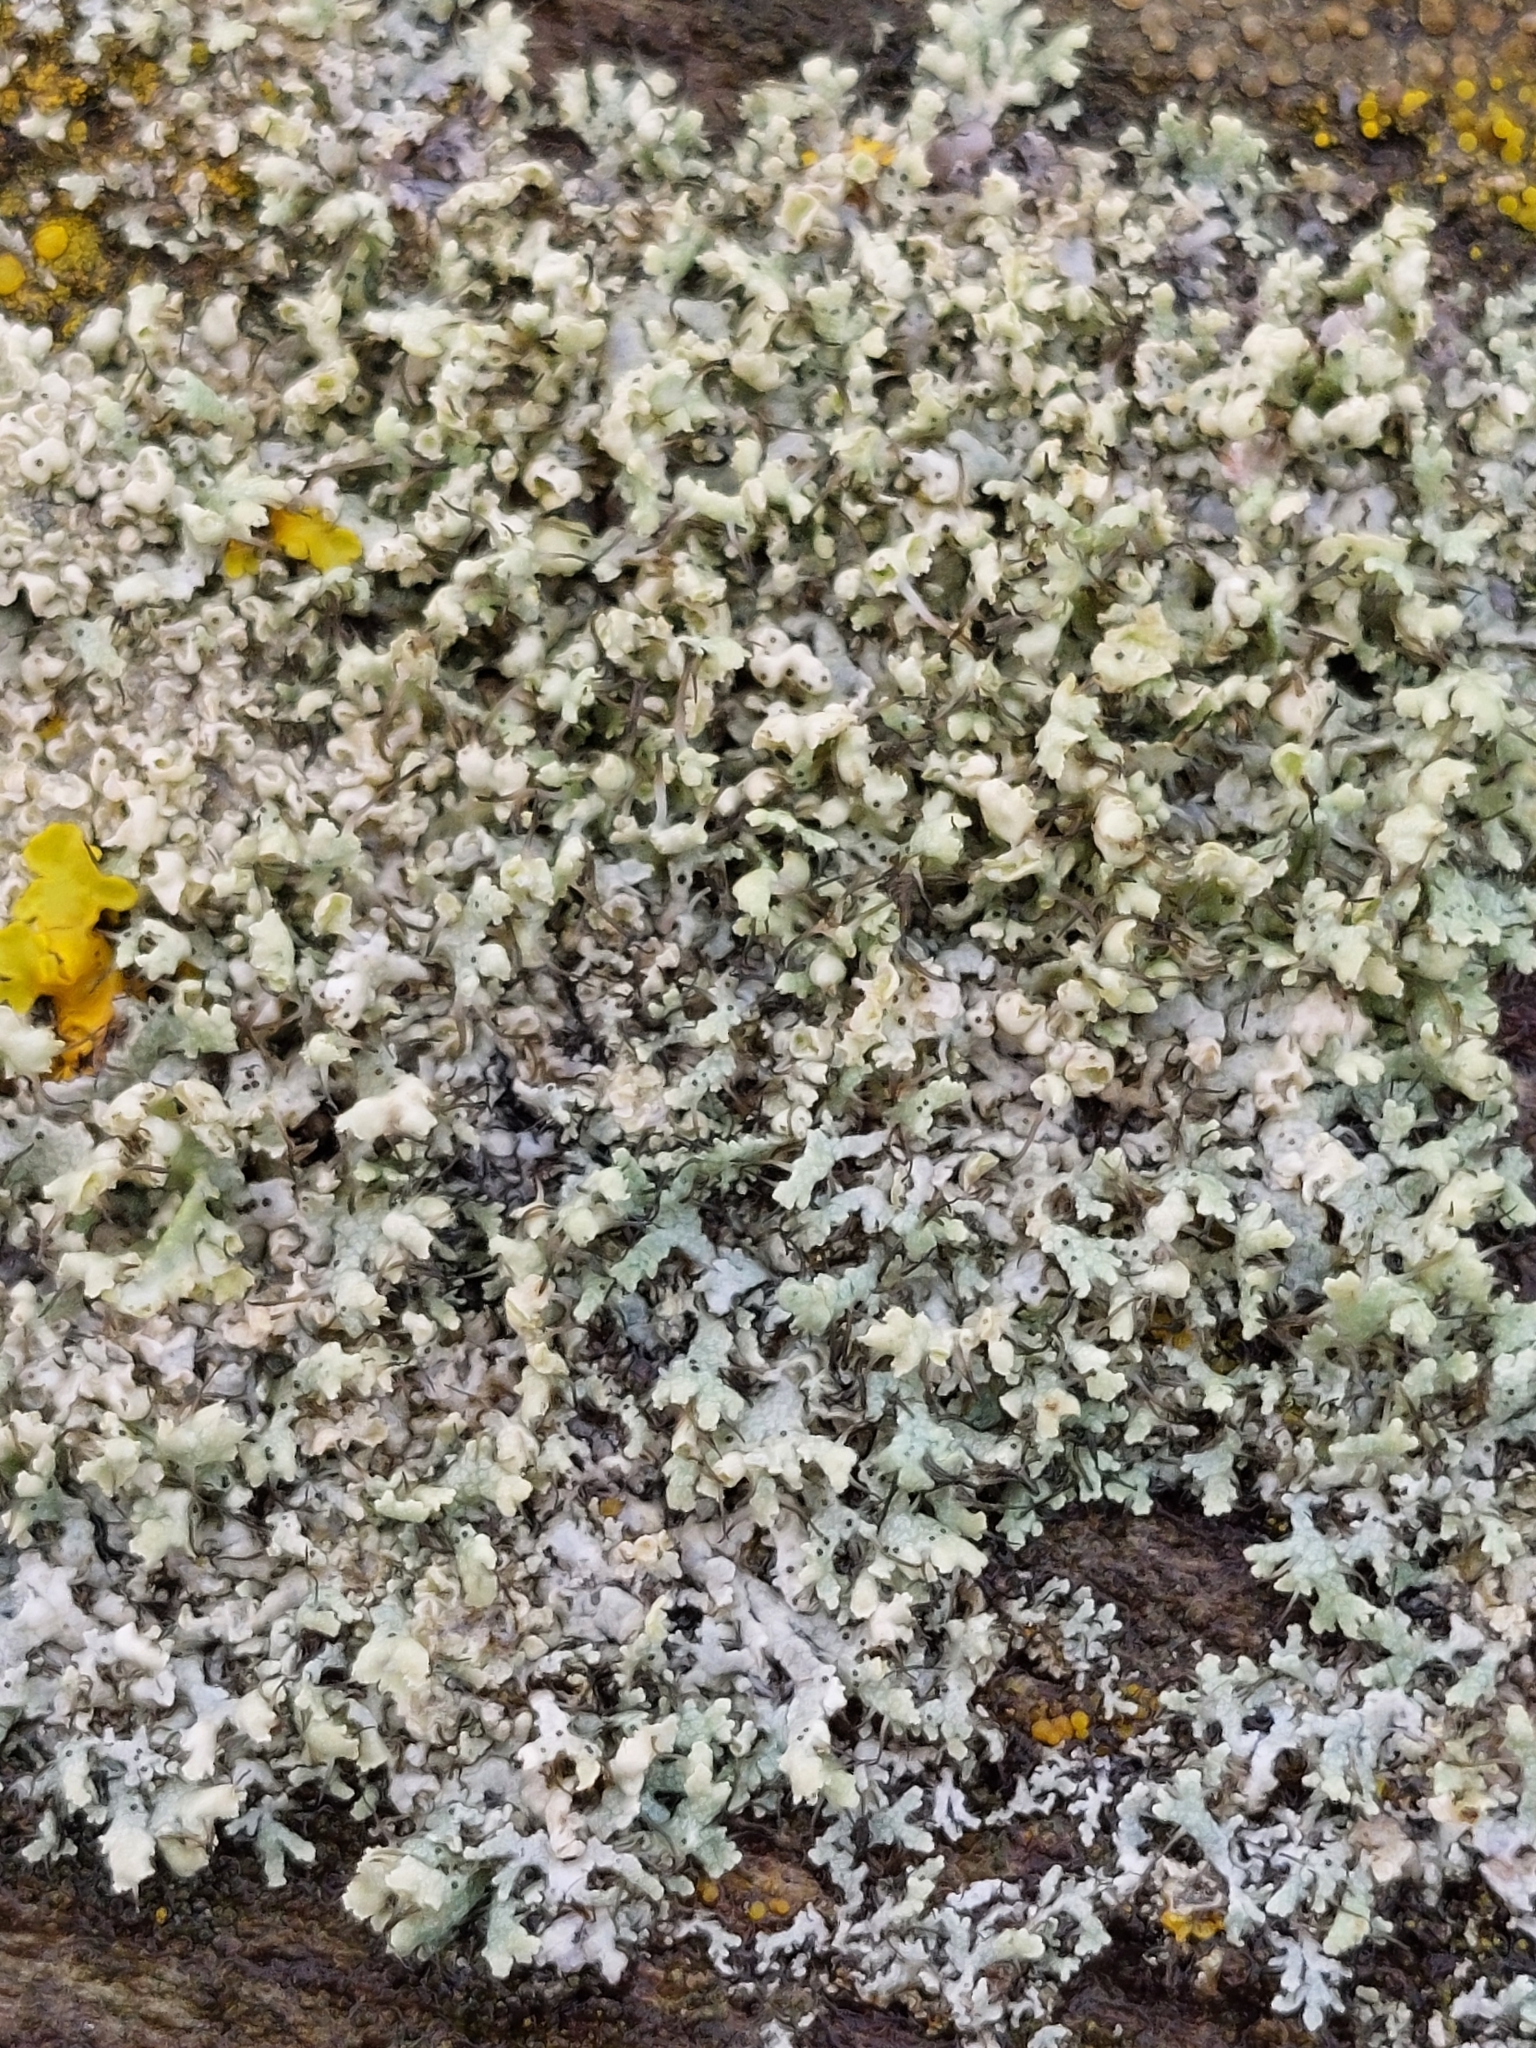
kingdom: Fungi
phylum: Ascomycota
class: Lecanoromycetes
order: Caliciales
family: Physciaceae
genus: Physcia
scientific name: Physcia adscendens
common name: Hooded rosette lichen
